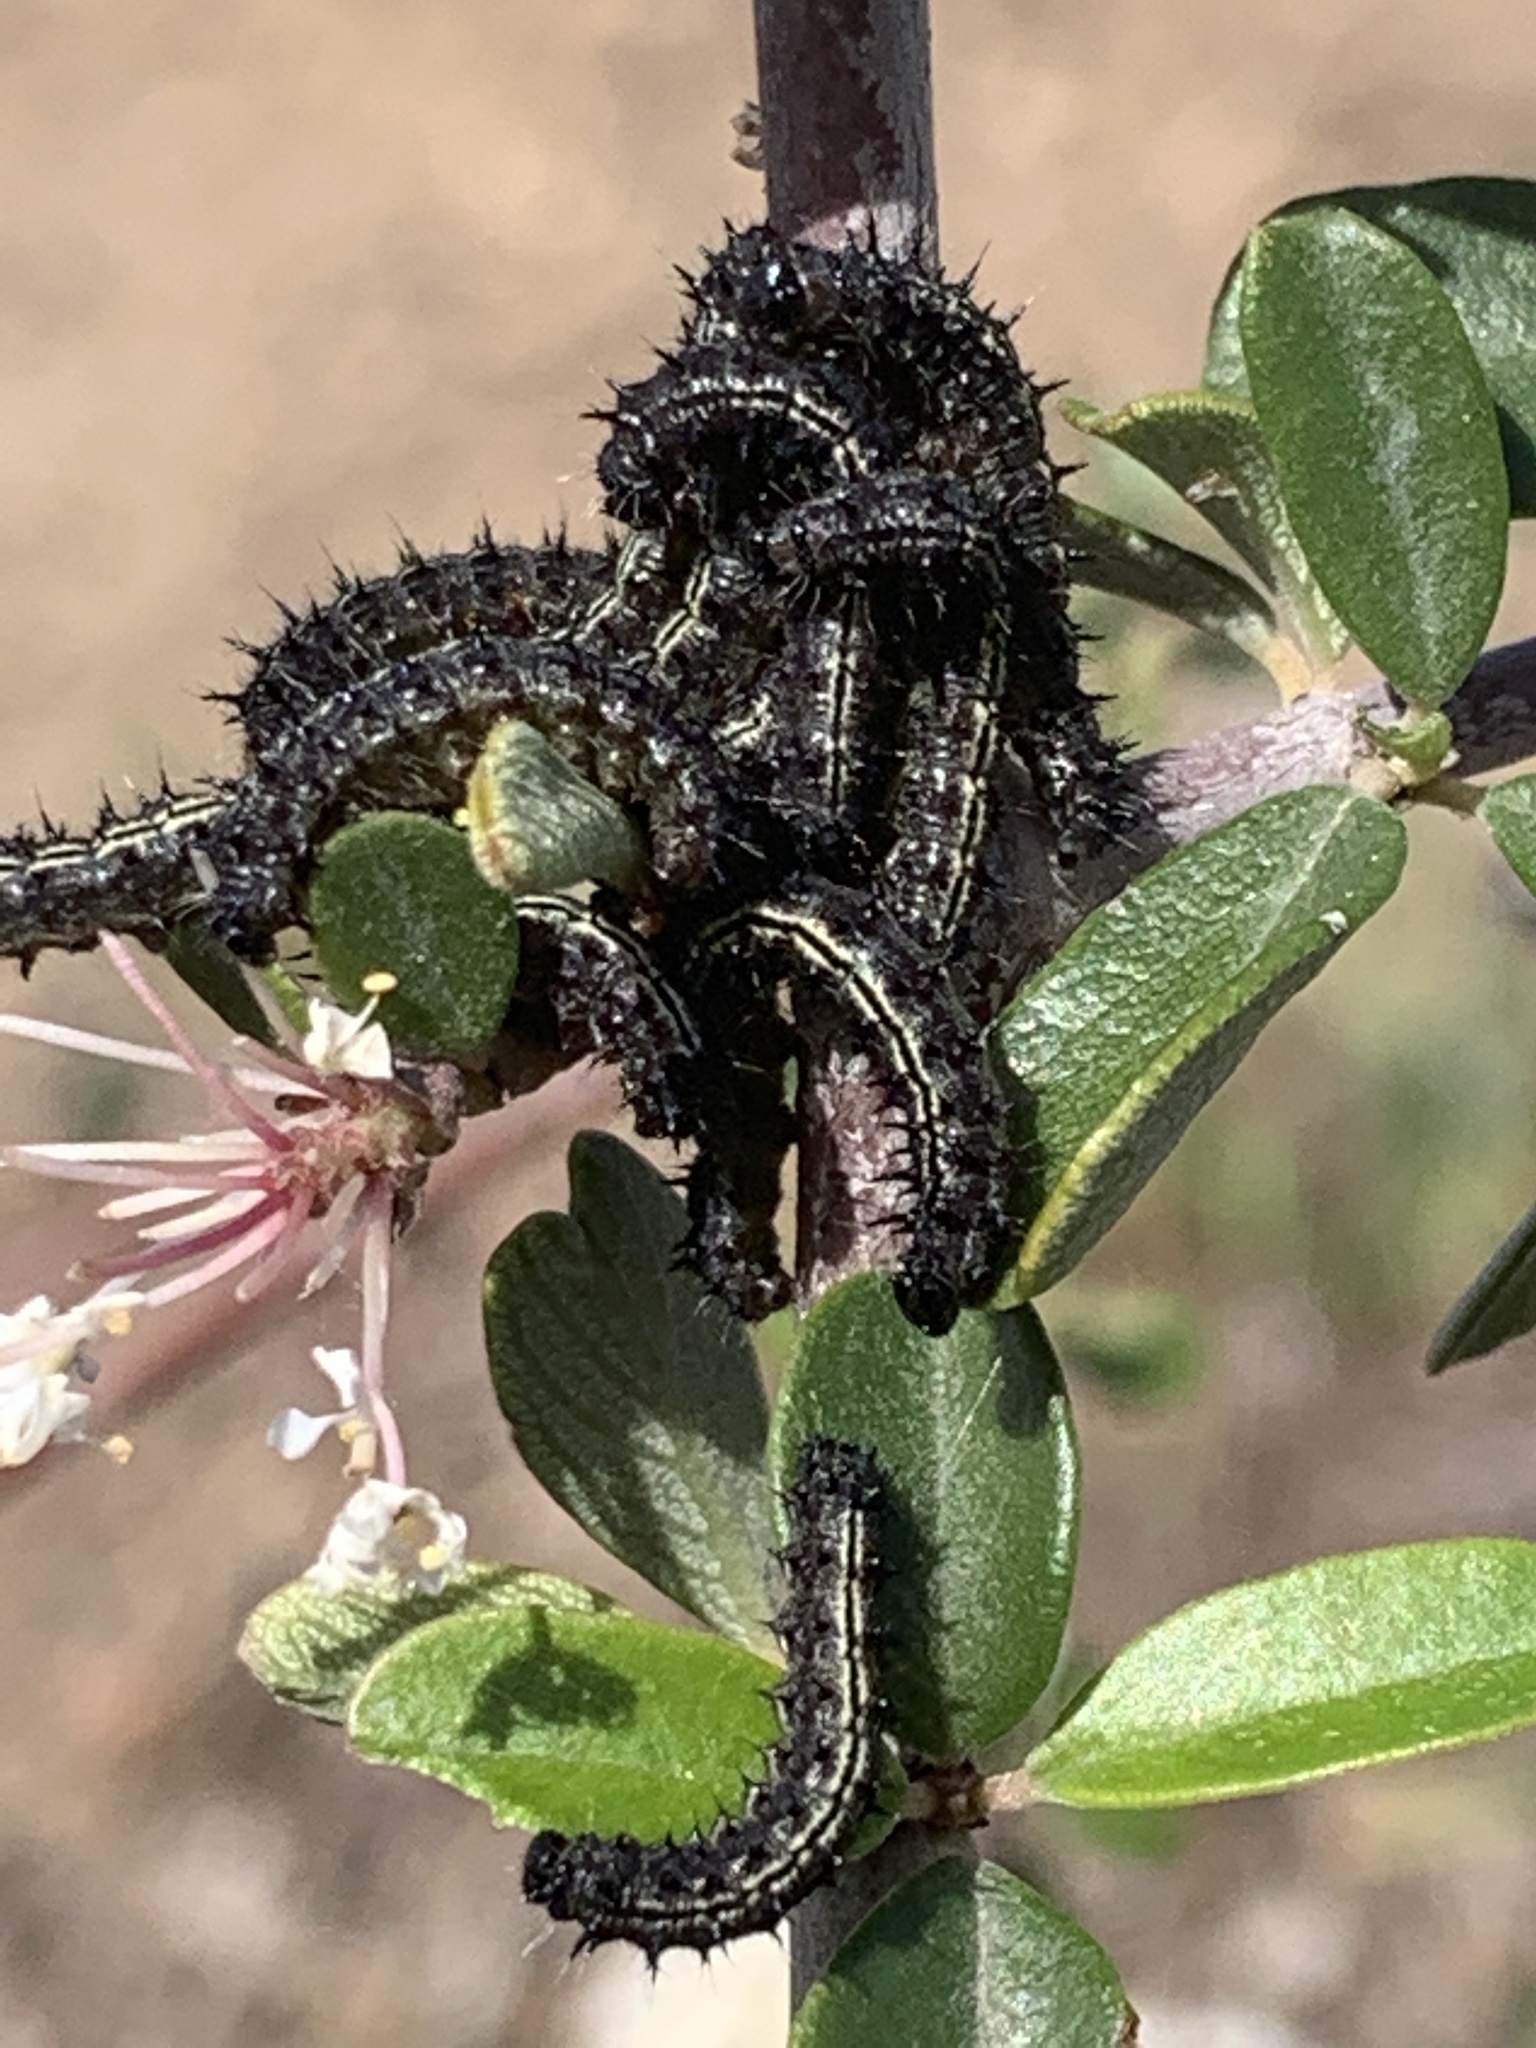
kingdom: Animalia
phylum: Arthropoda
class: Insecta
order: Lepidoptera
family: Nymphalidae
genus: Nymphalis
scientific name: Nymphalis californica
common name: California tortoiseshell
